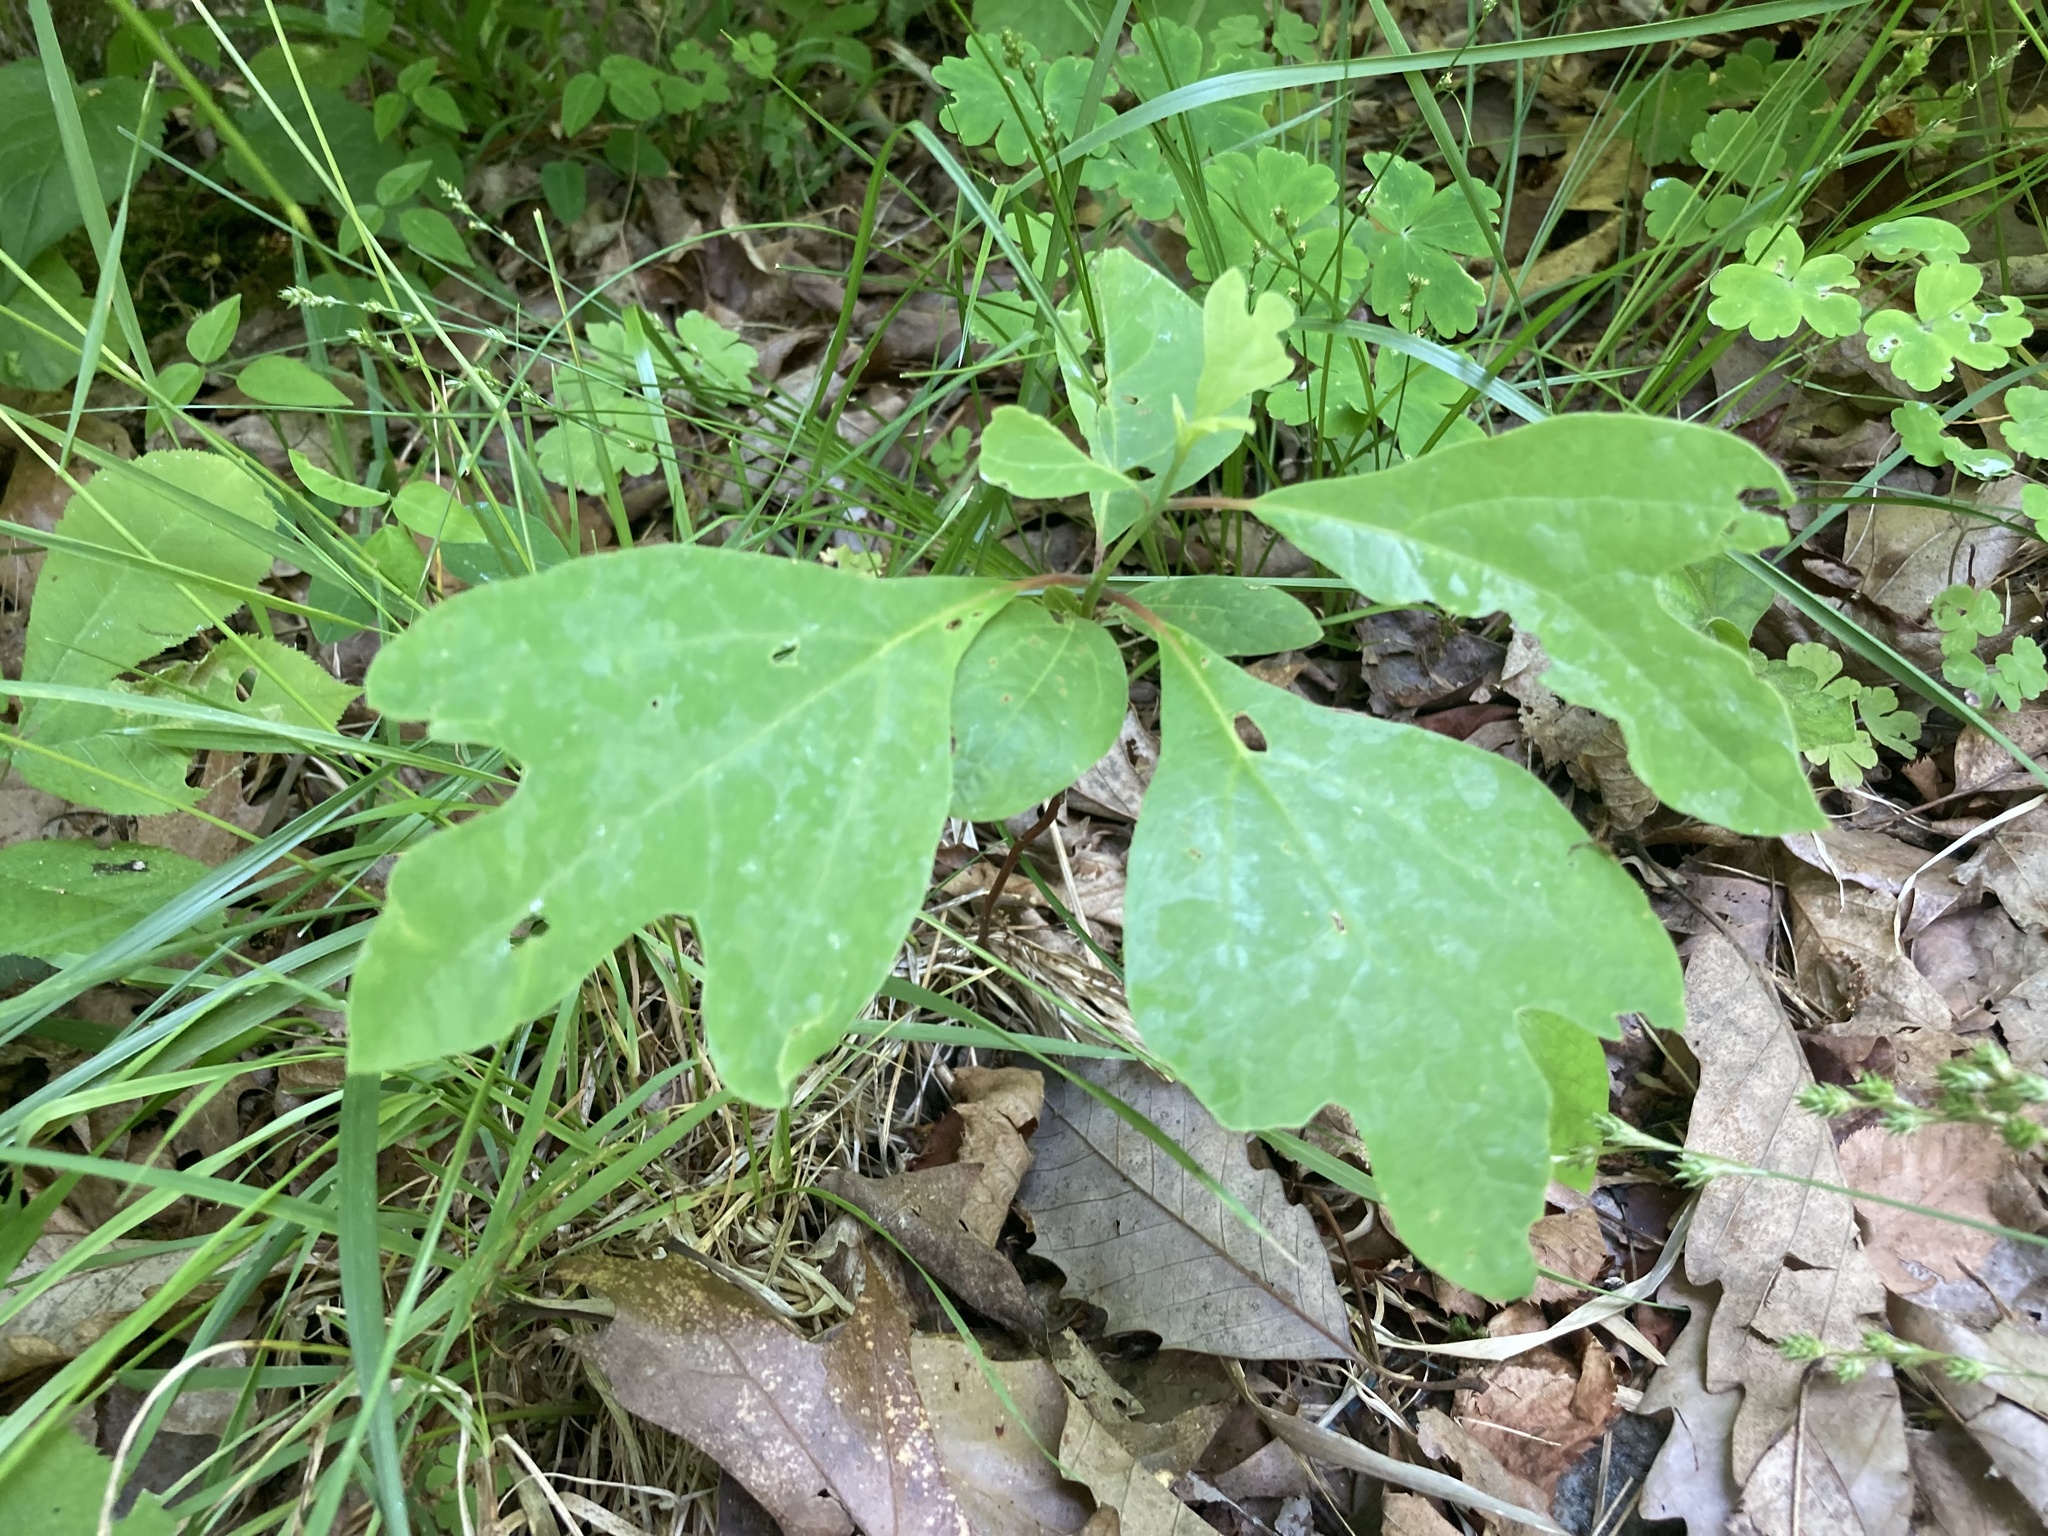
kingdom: Plantae
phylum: Tracheophyta
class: Magnoliopsida
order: Laurales
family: Lauraceae
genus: Sassafras
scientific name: Sassafras albidum
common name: Sassafras
